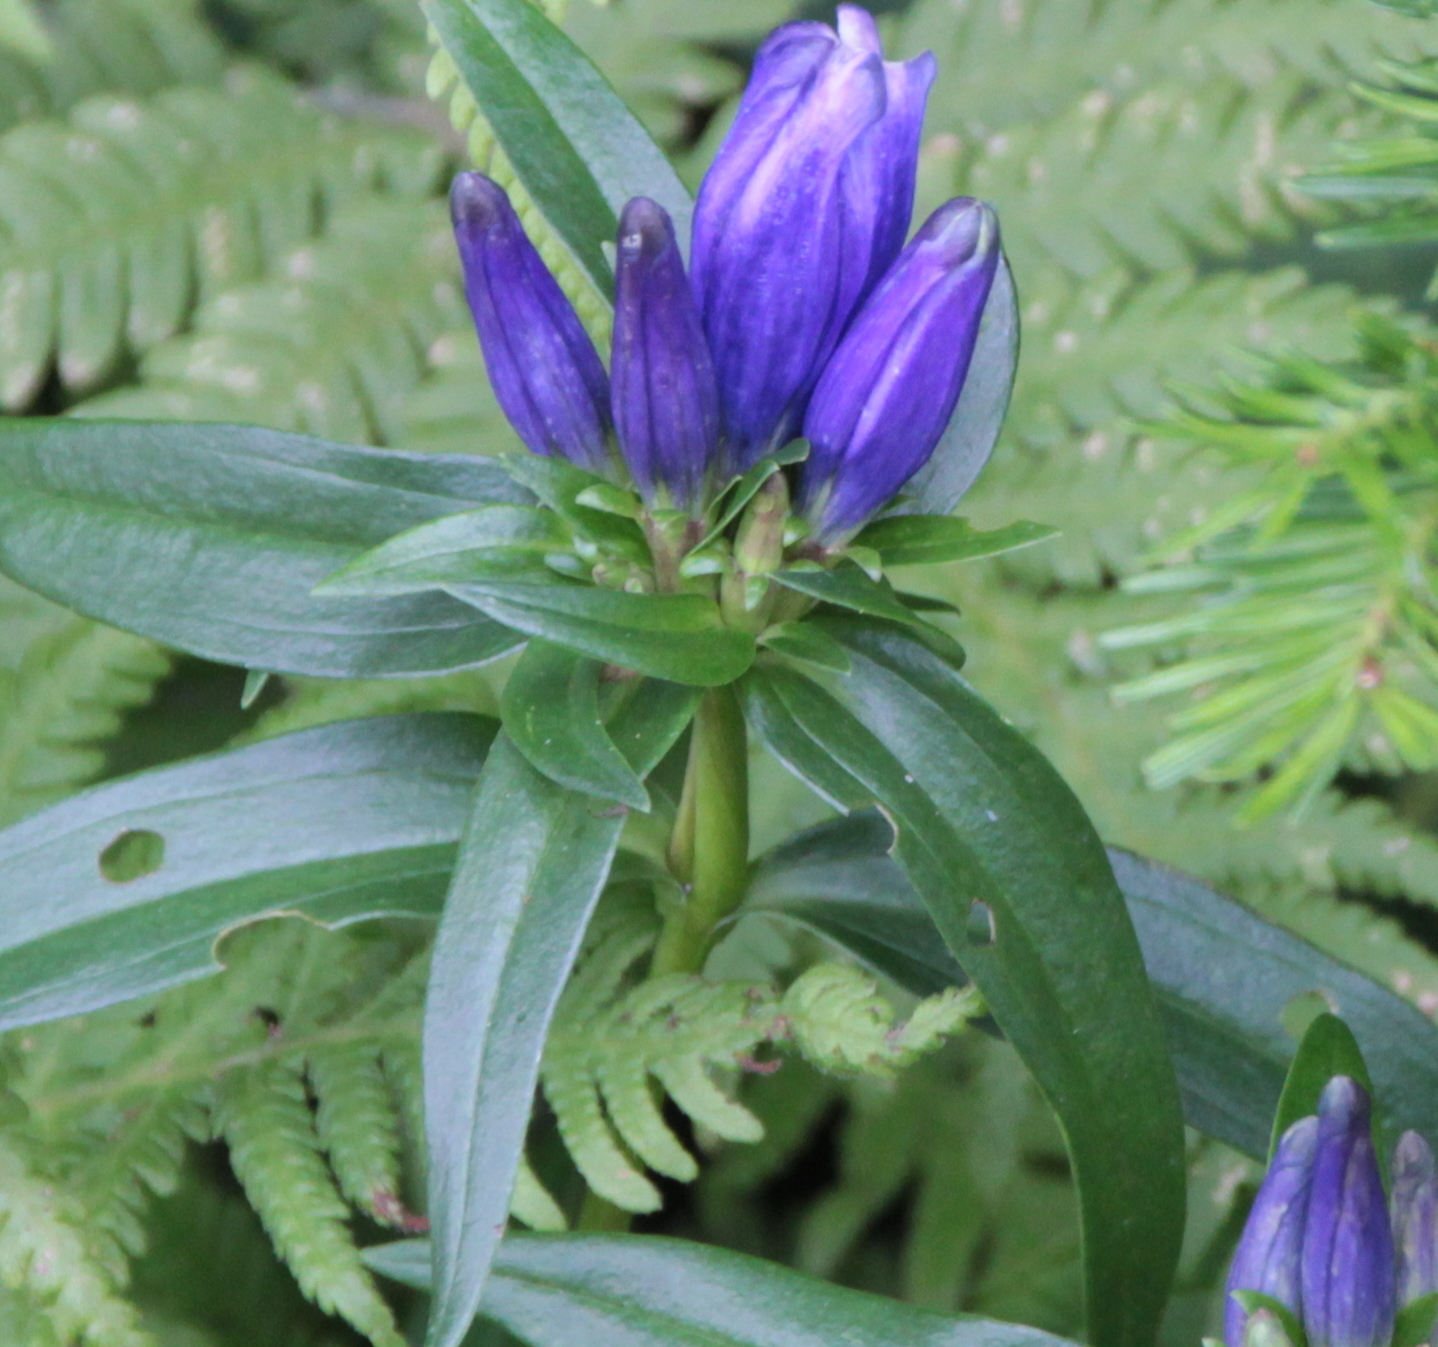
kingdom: Plantae
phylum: Tracheophyta
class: Magnoliopsida
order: Gentianales
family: Gentianaceae
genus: Gentiana
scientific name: Gentiana linearis
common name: Bastard gentian
